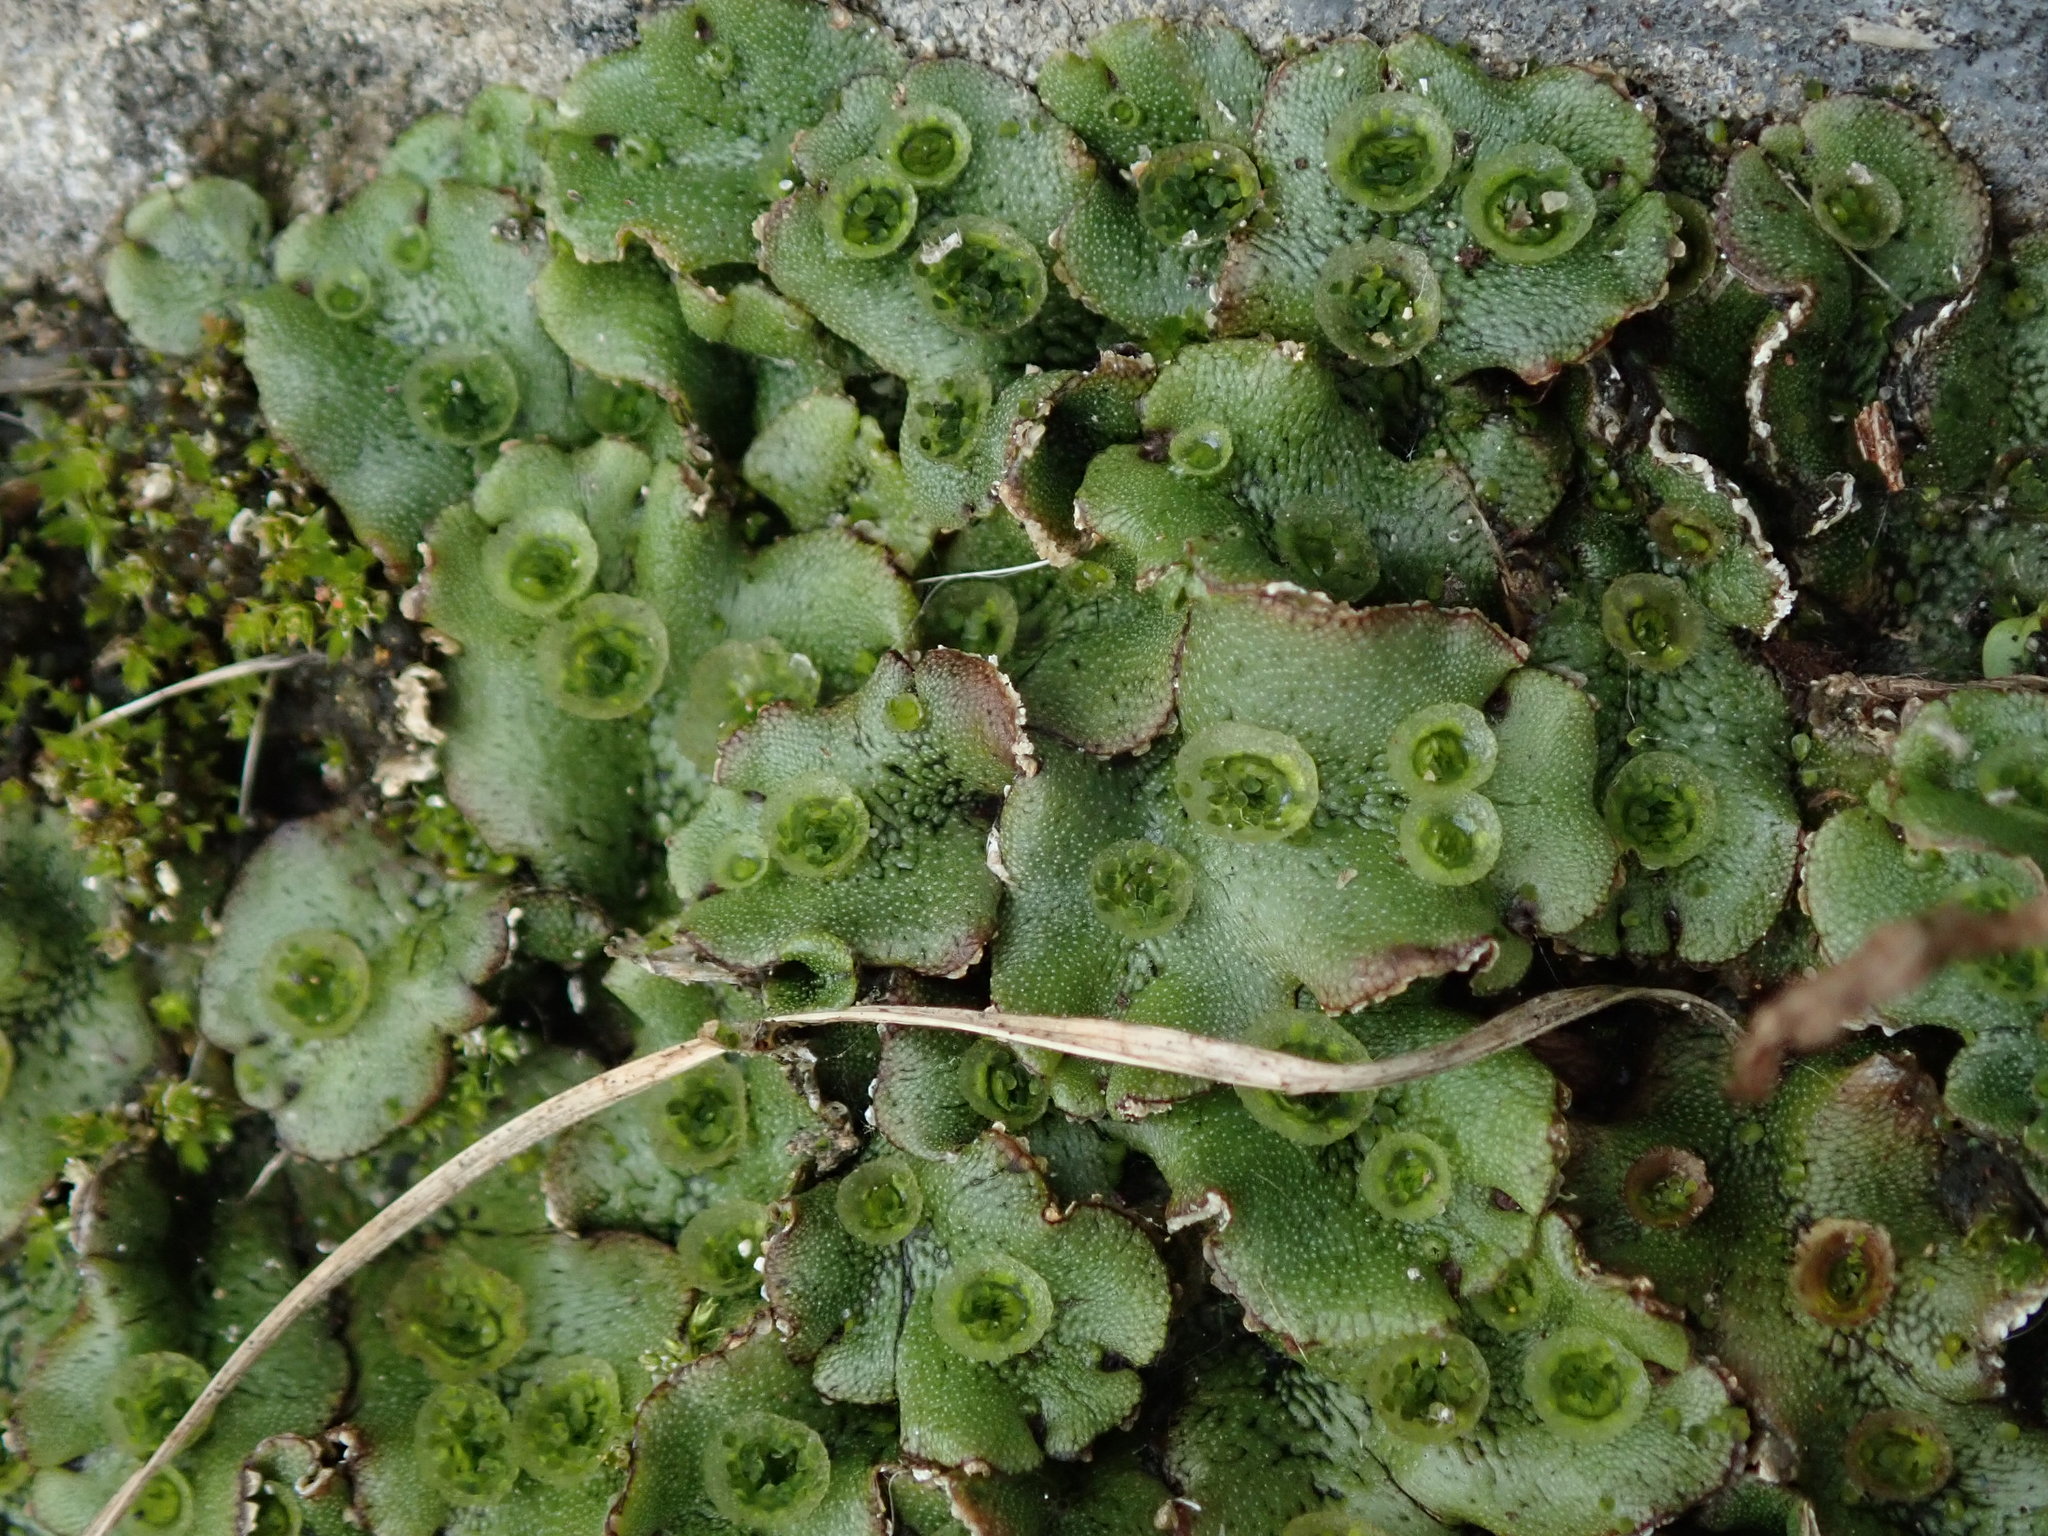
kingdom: Plantae
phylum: Marchantiophyta
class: Marchantiopsida
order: Marchantiales
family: Marchantiaceae
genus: Marchantia
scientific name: Marchantia polymorpha
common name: Common liverwort
